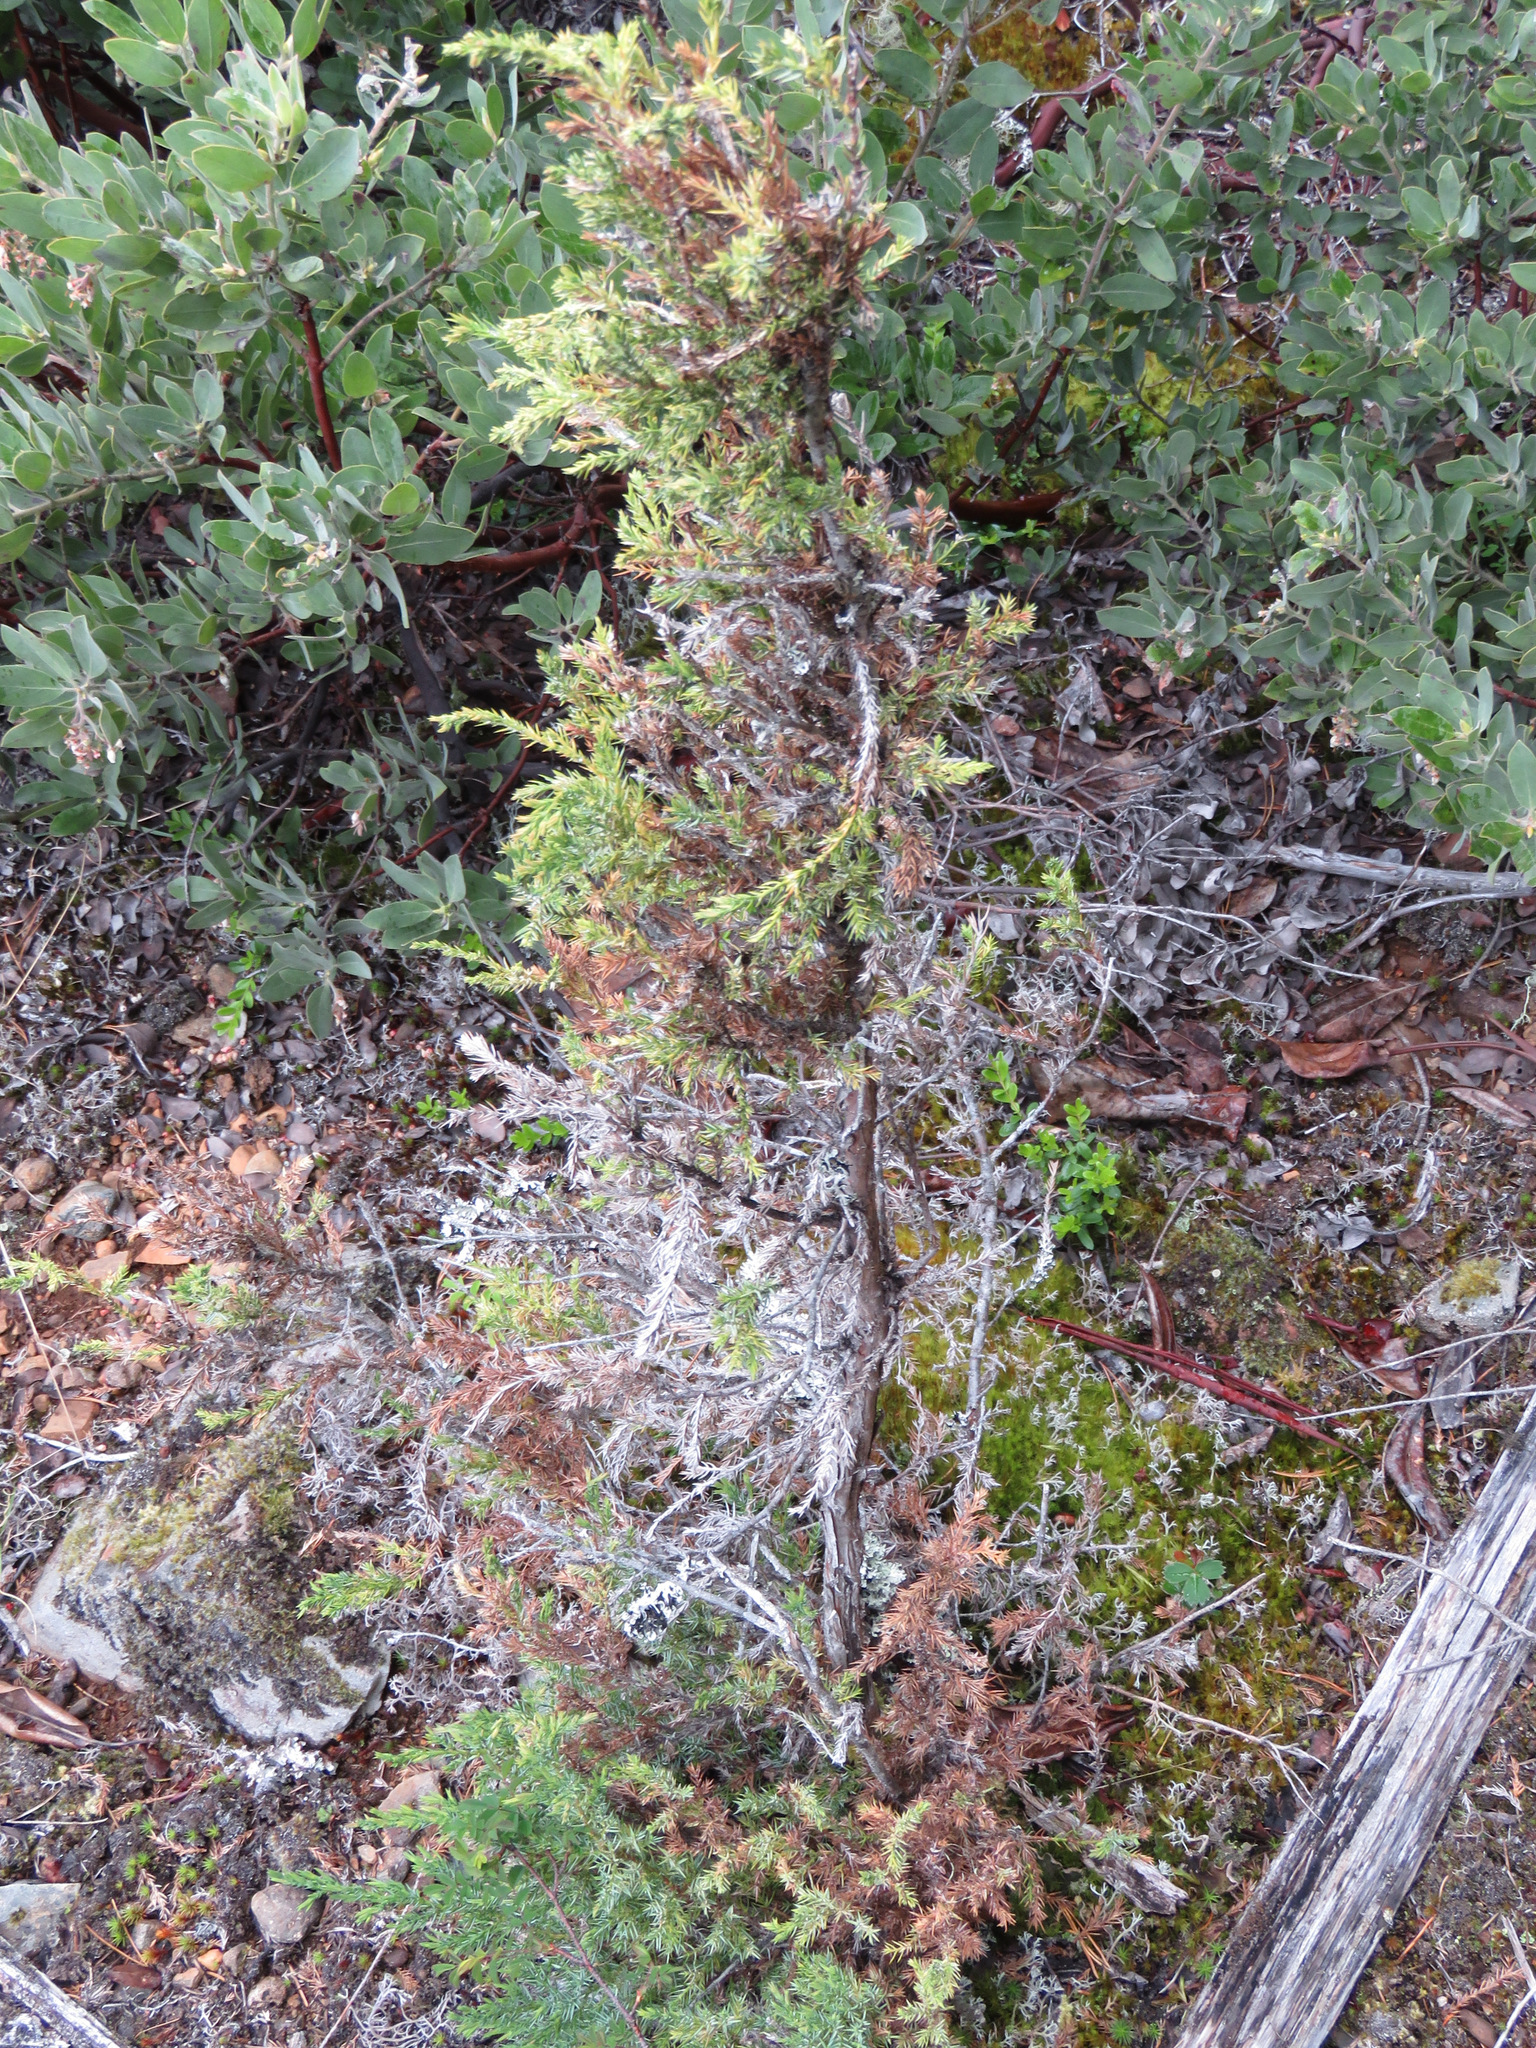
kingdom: Plantae
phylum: Tracheophyta
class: Pinopsida
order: Pinales
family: Cupressaceae
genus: Juniperus
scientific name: Juniperus scopulorum
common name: Rocky mountain juniper
